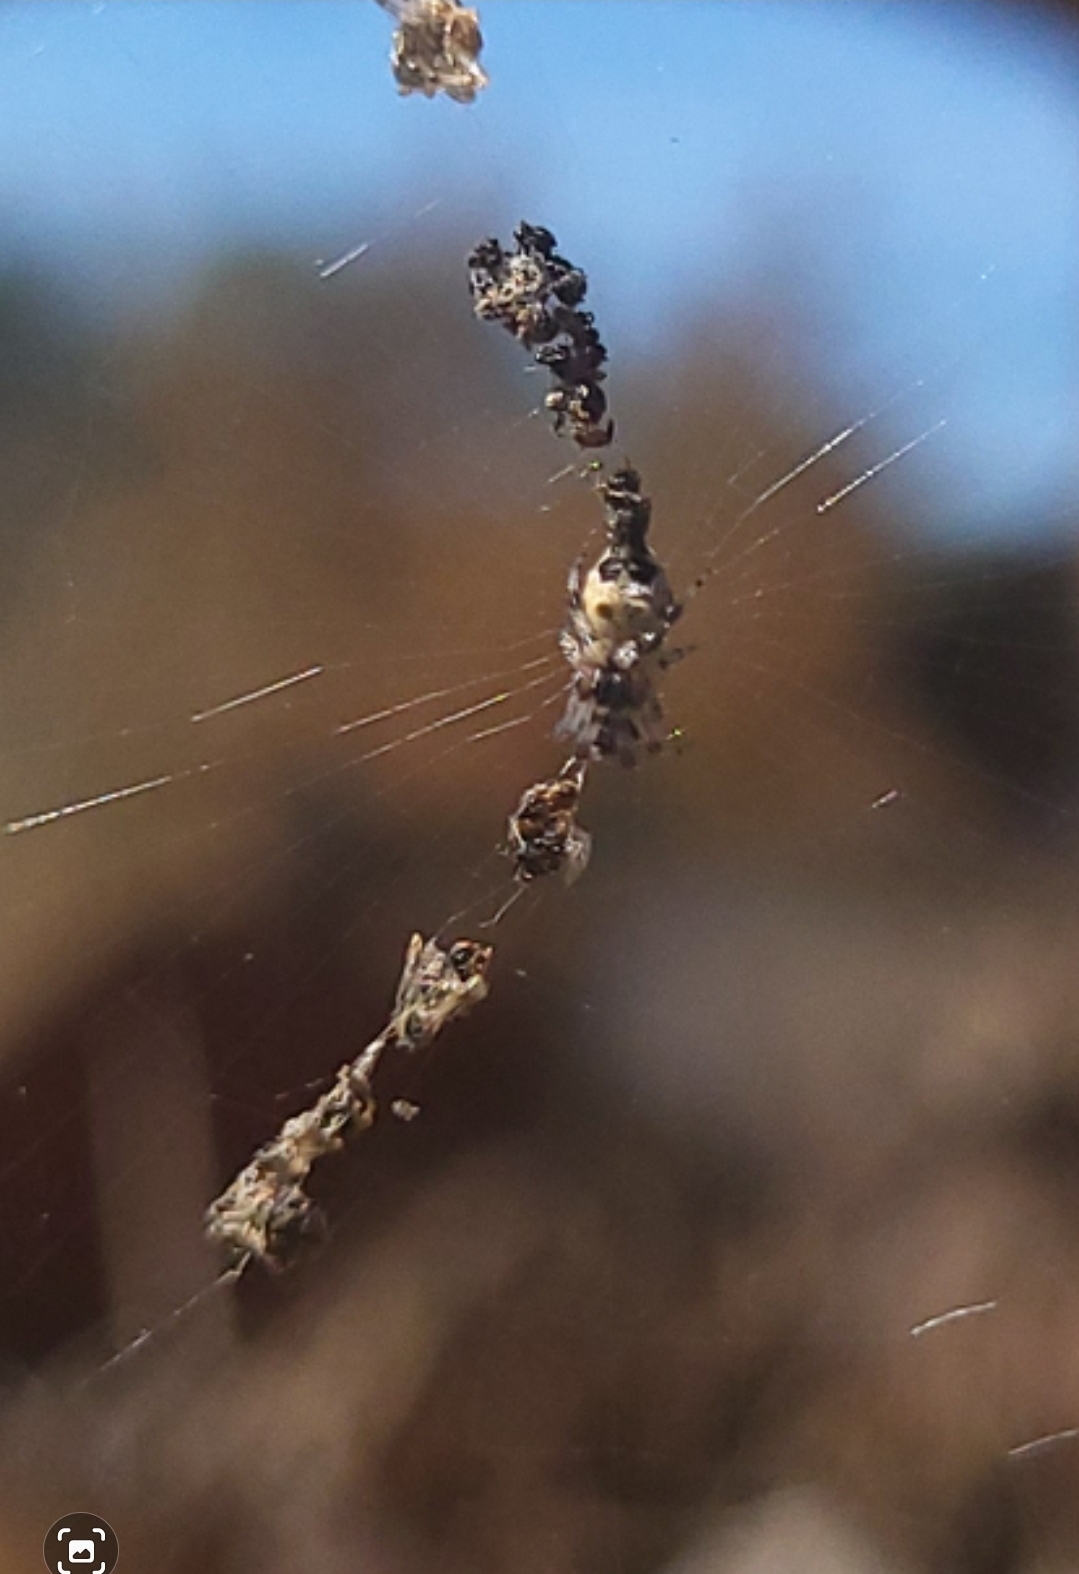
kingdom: Animalia
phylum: Arthropoda
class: Arachnida
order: Araneae
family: Araneidae
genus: Cyclosa
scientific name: Cyclosa turbinata
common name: Orb weavers
